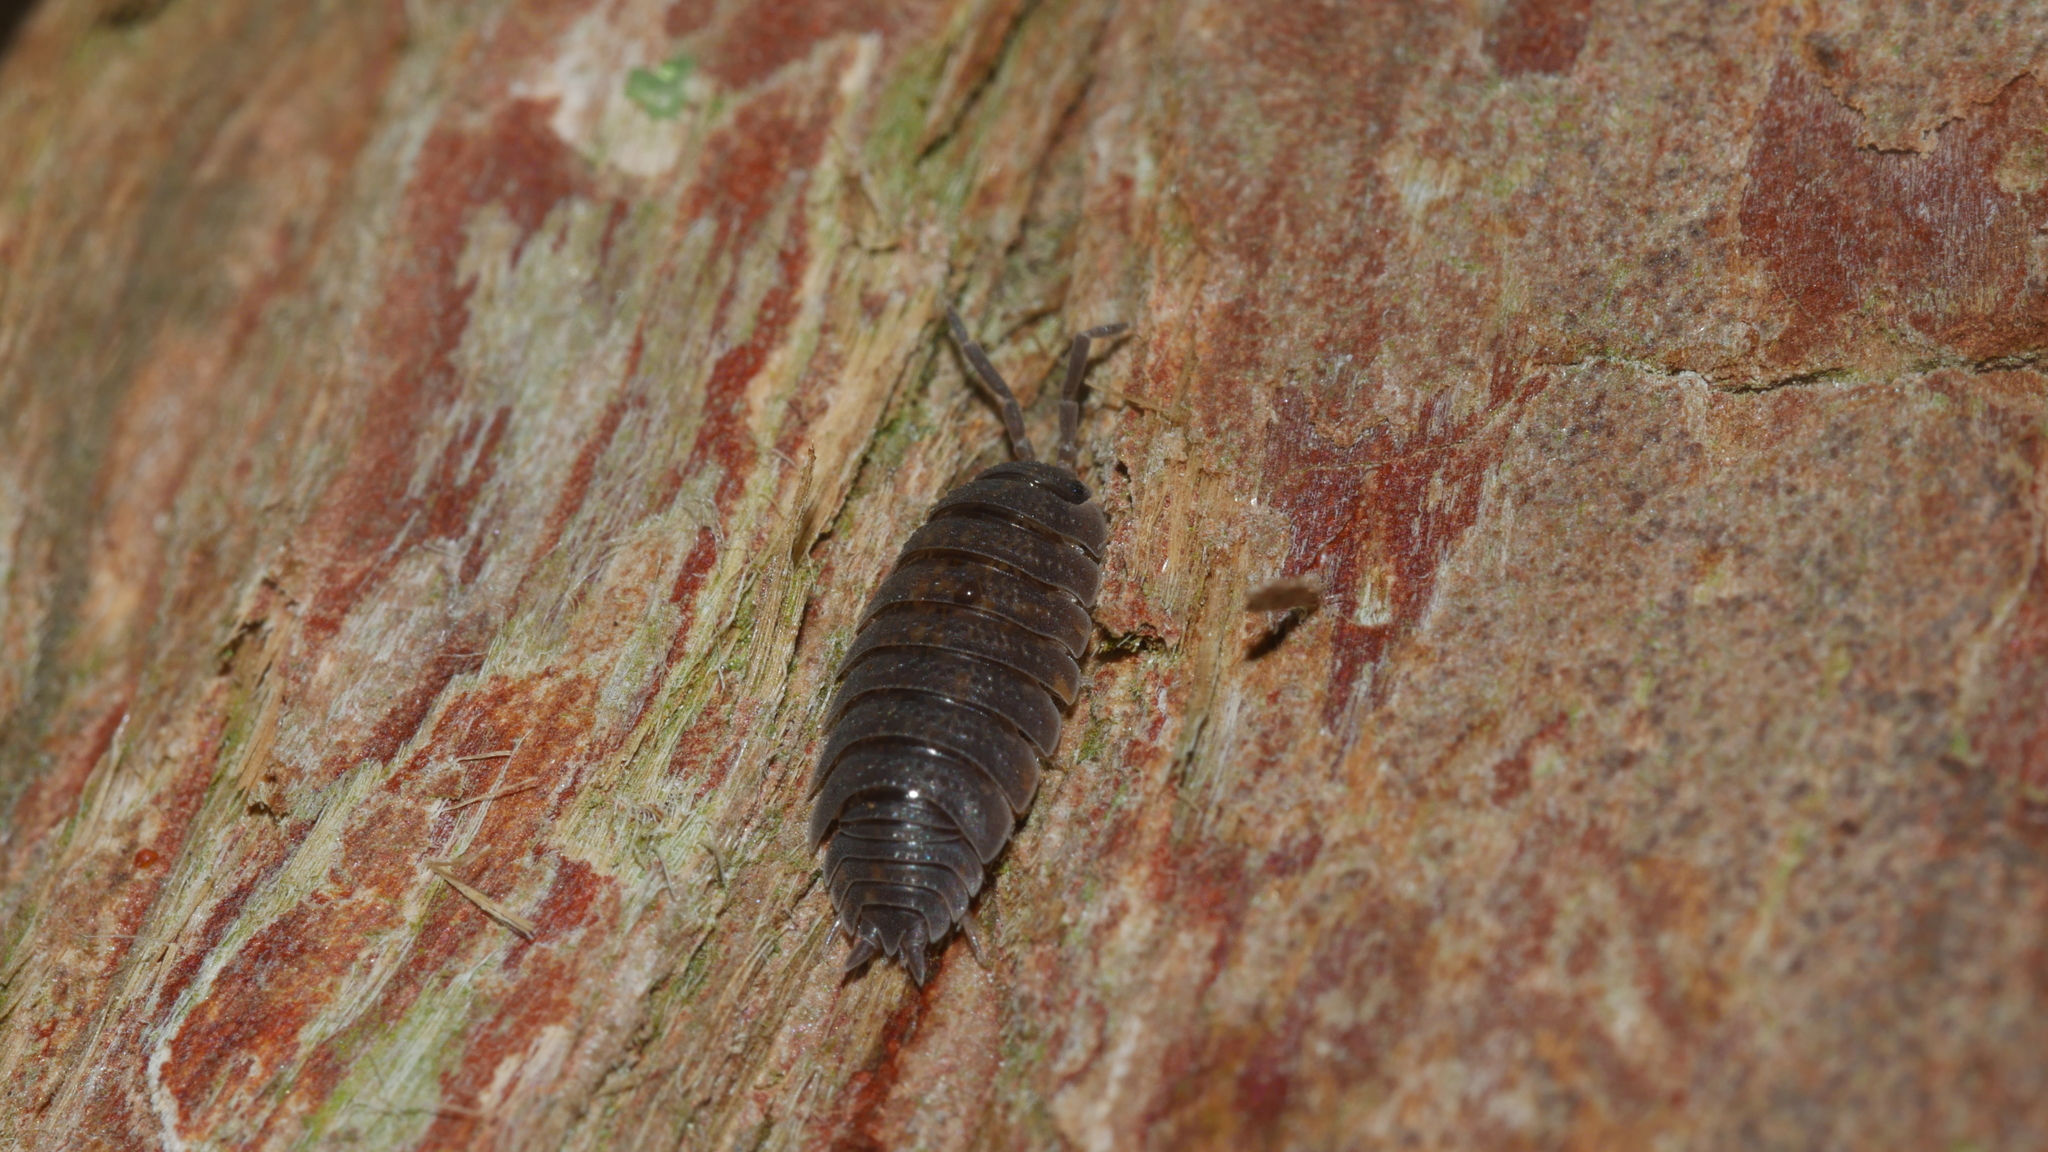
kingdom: Animalia
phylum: Arthropoda
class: Malacostraca
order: Isopoda
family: Porcellionidae
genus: Porcellio
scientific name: Porcellio scaber
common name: Common rough woodlouse
